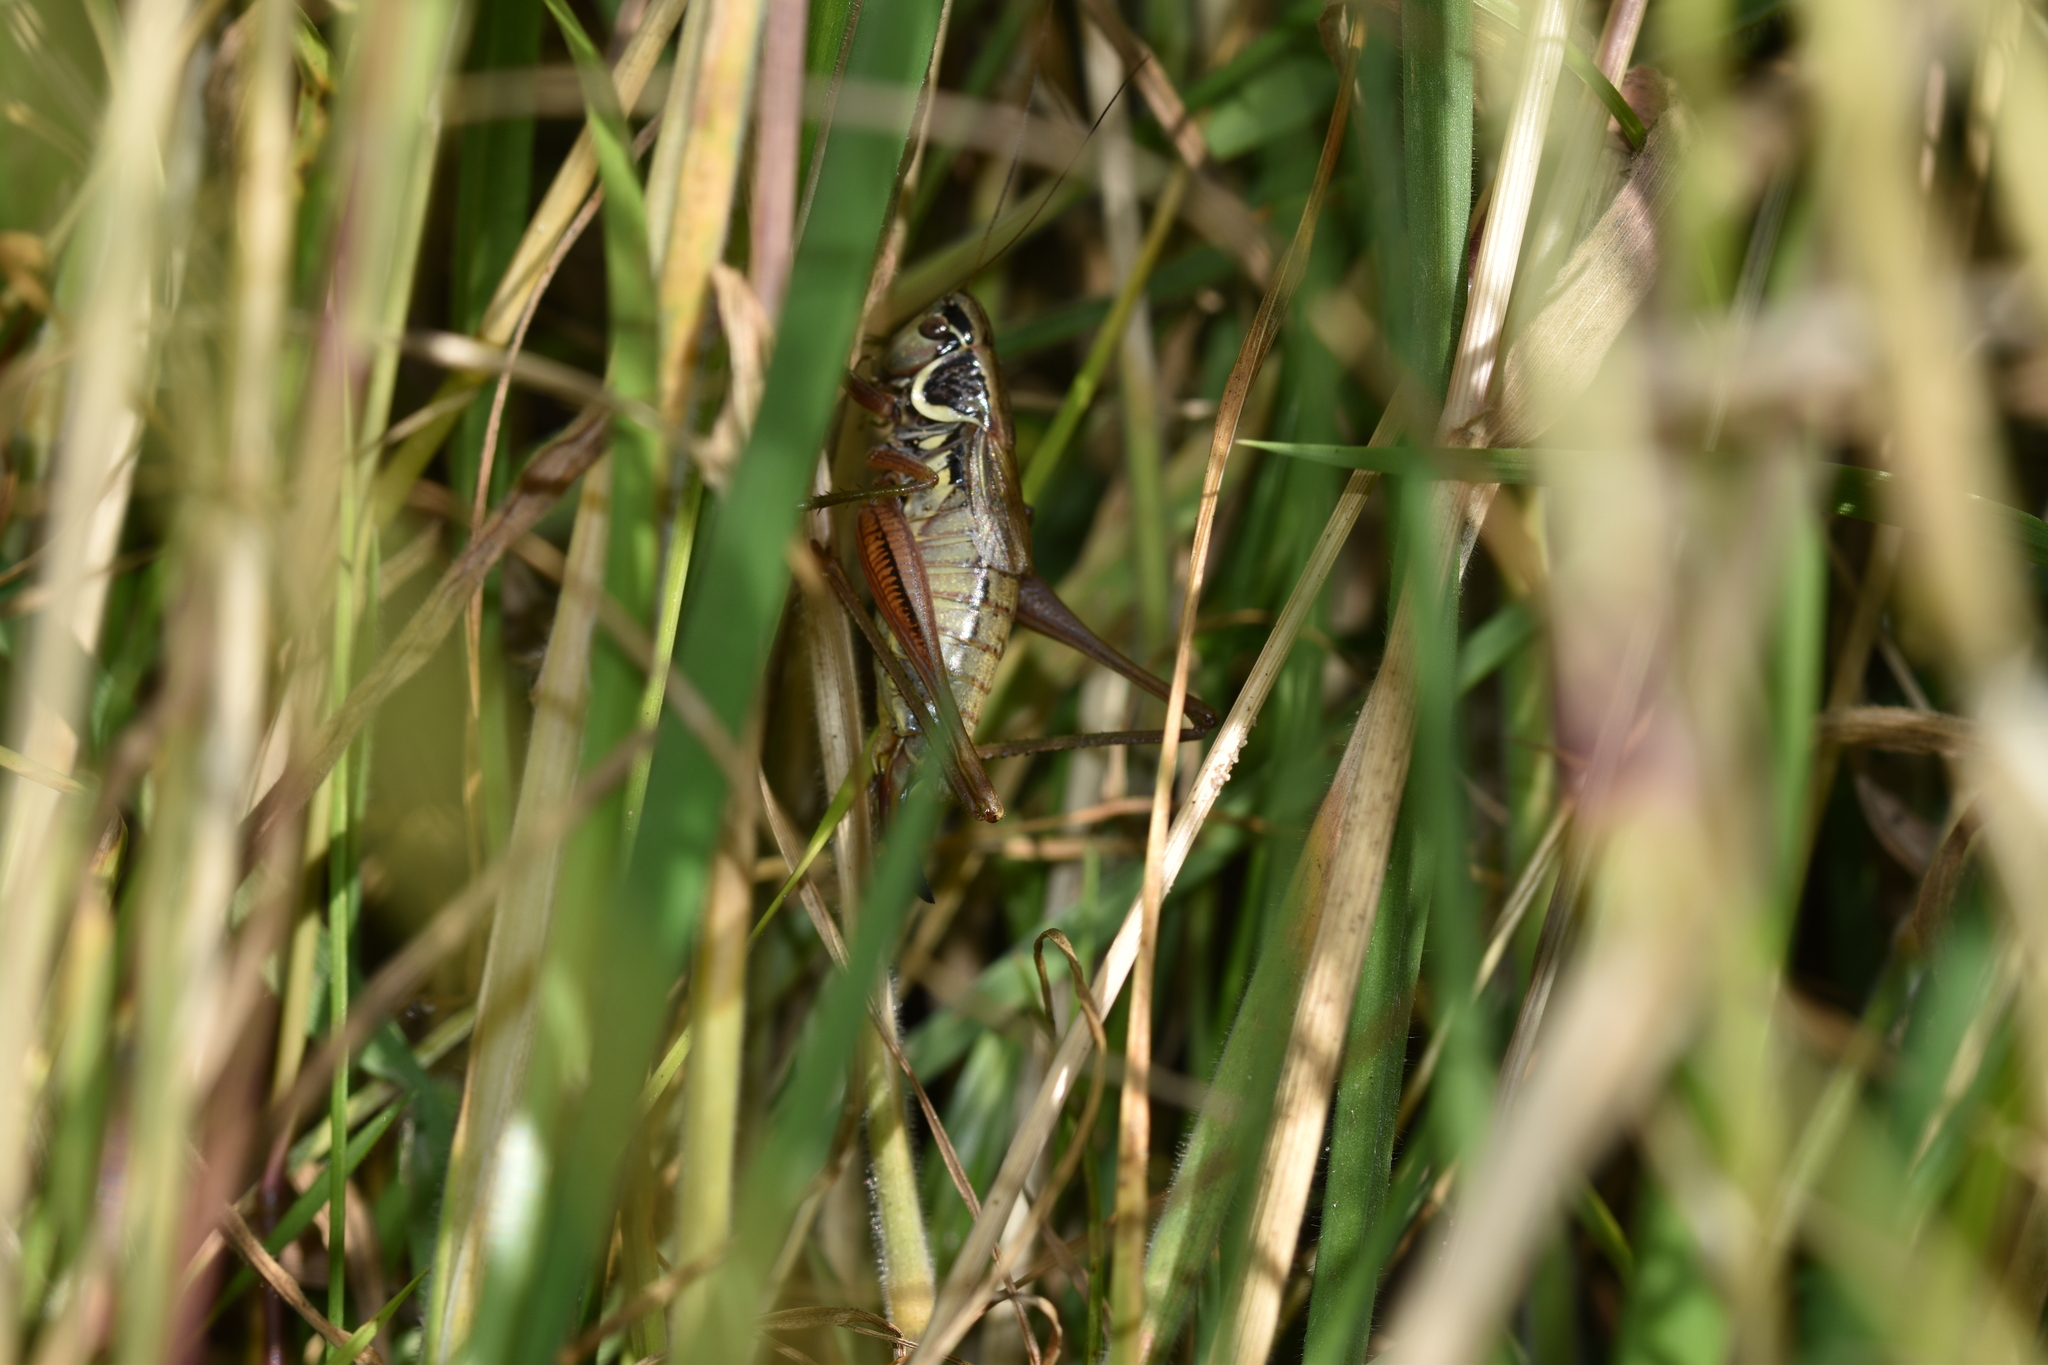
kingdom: Animalia
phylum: Arthropoda
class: Insecta
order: Orthoptera
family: Tettigoniidae
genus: Roeseliana
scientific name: Roeseliana roeselii
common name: Roesel's bush cricket
